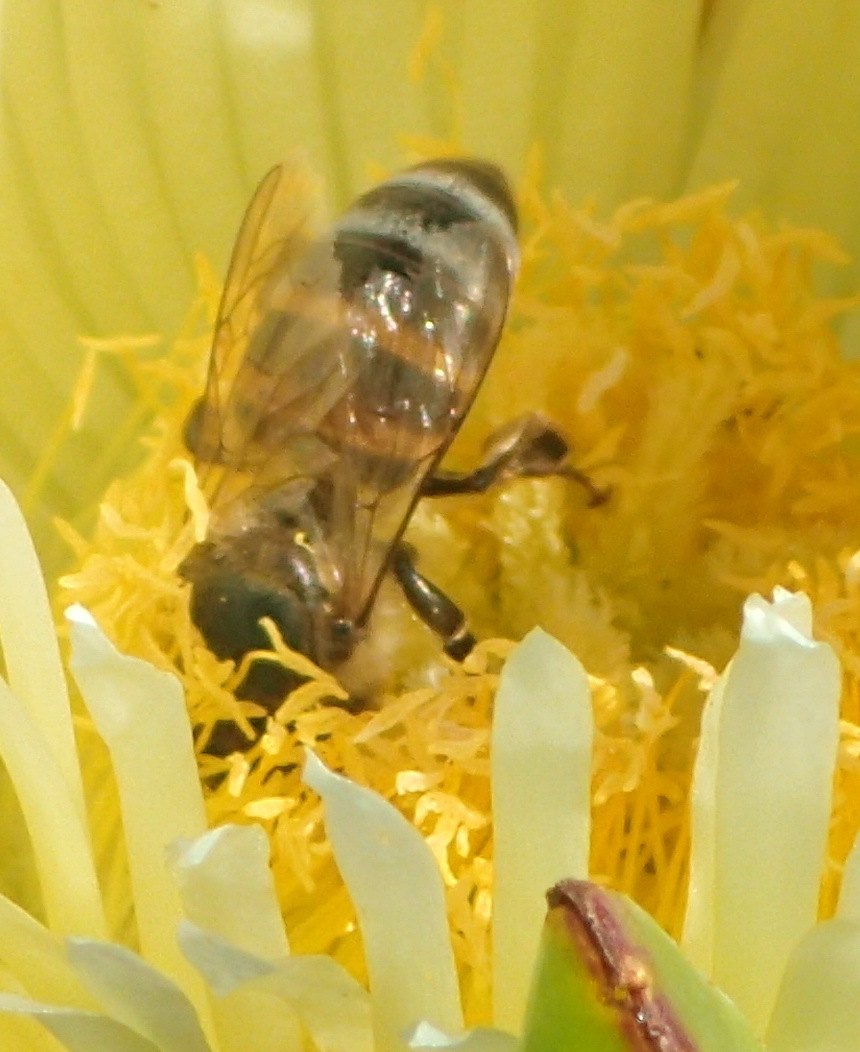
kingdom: Animalia
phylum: Arthropoda
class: Insecta
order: Hymenoptera
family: Apidae
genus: Apis
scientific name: Apis mellifera
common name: Honey bee
